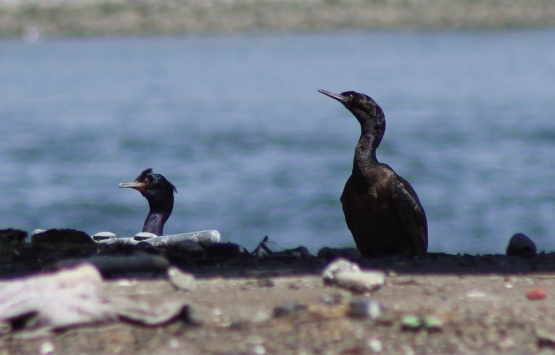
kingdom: Animalia
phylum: Chordata
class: Aves
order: Suliformes
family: Phalacrocoracidae
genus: Phalacrocorax
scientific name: Phalacrocorax pelagicus
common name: Pelagic cormorant
